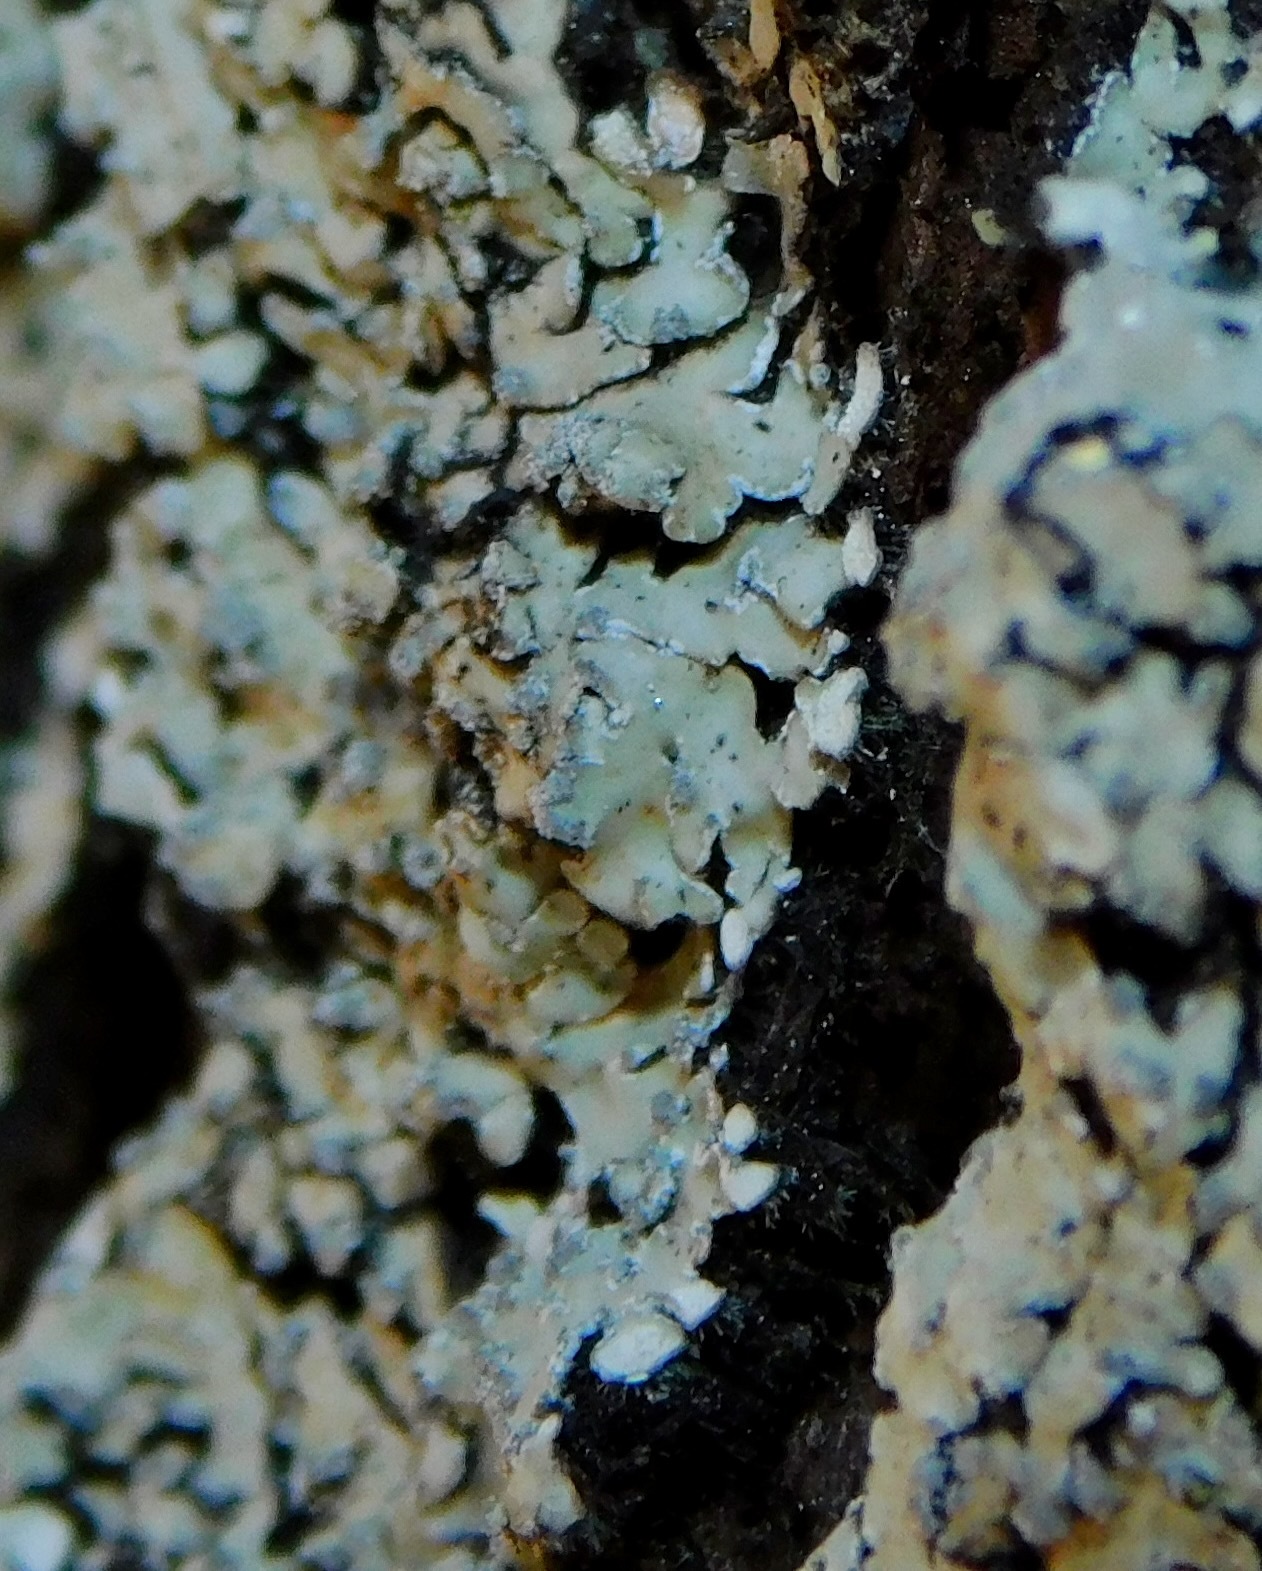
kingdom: Fungi
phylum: Ascomycota
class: Lecanoromycetes
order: Caliciales
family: Caliciaceae
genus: Pyxine
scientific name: Pyxine sorediata
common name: Mustard lichen
